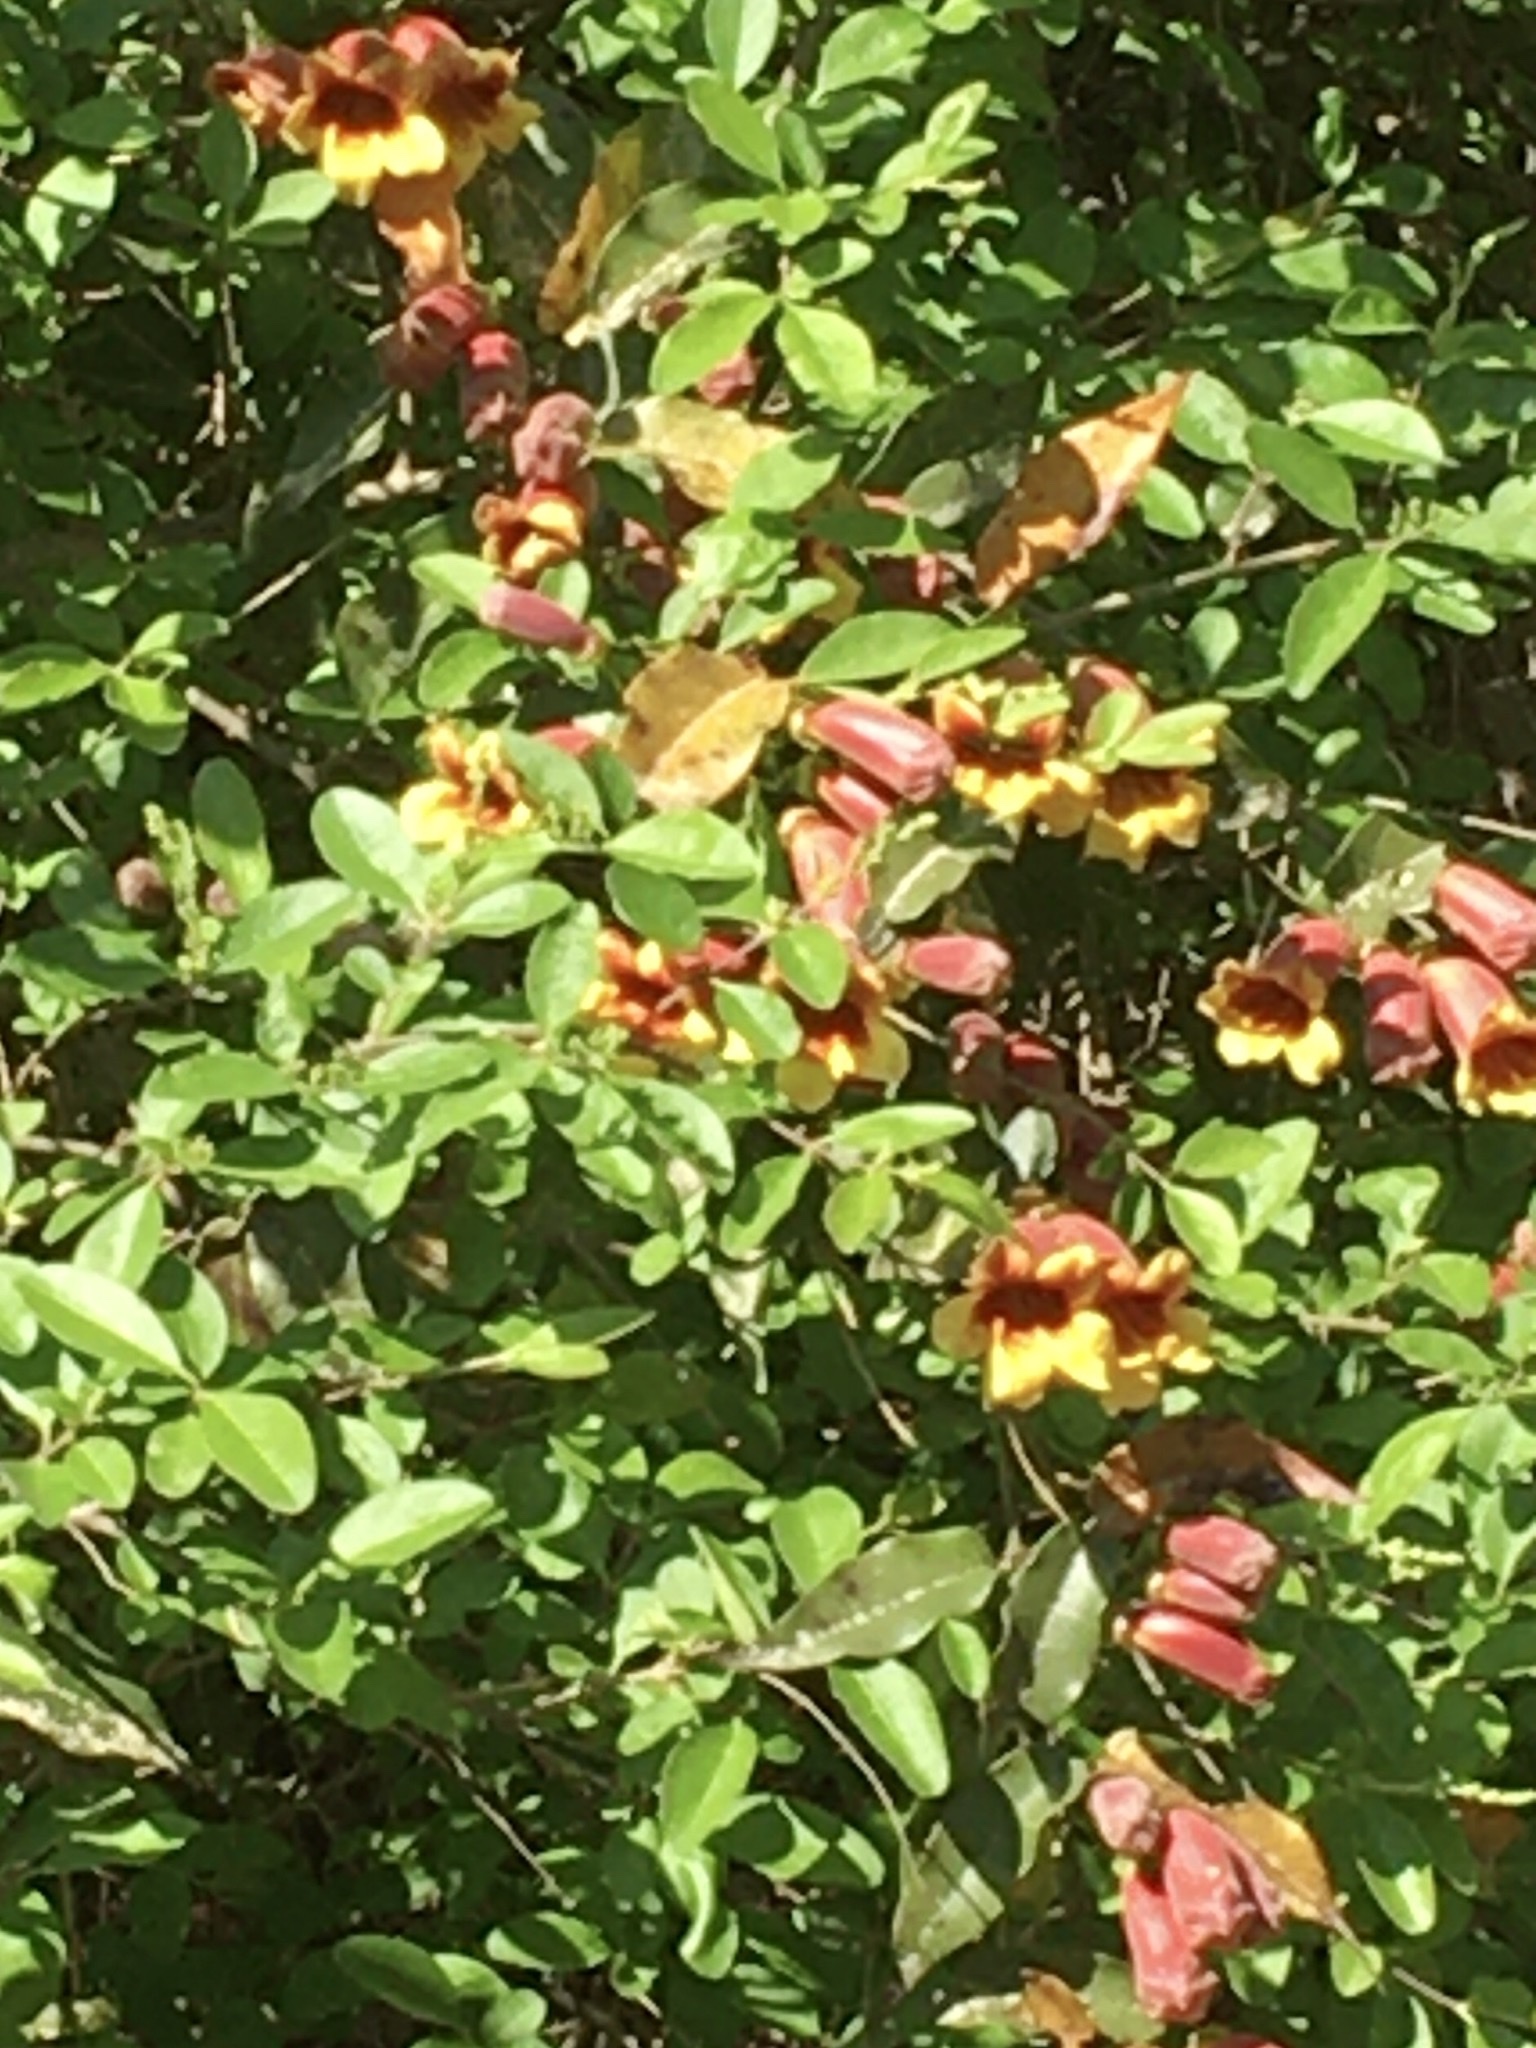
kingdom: Plantae
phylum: Tracheophyta
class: Magnoliopsida
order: Lamiales
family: Bignoniaceae
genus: Bignonia
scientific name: Bignonia capreolata
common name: Crossvine
